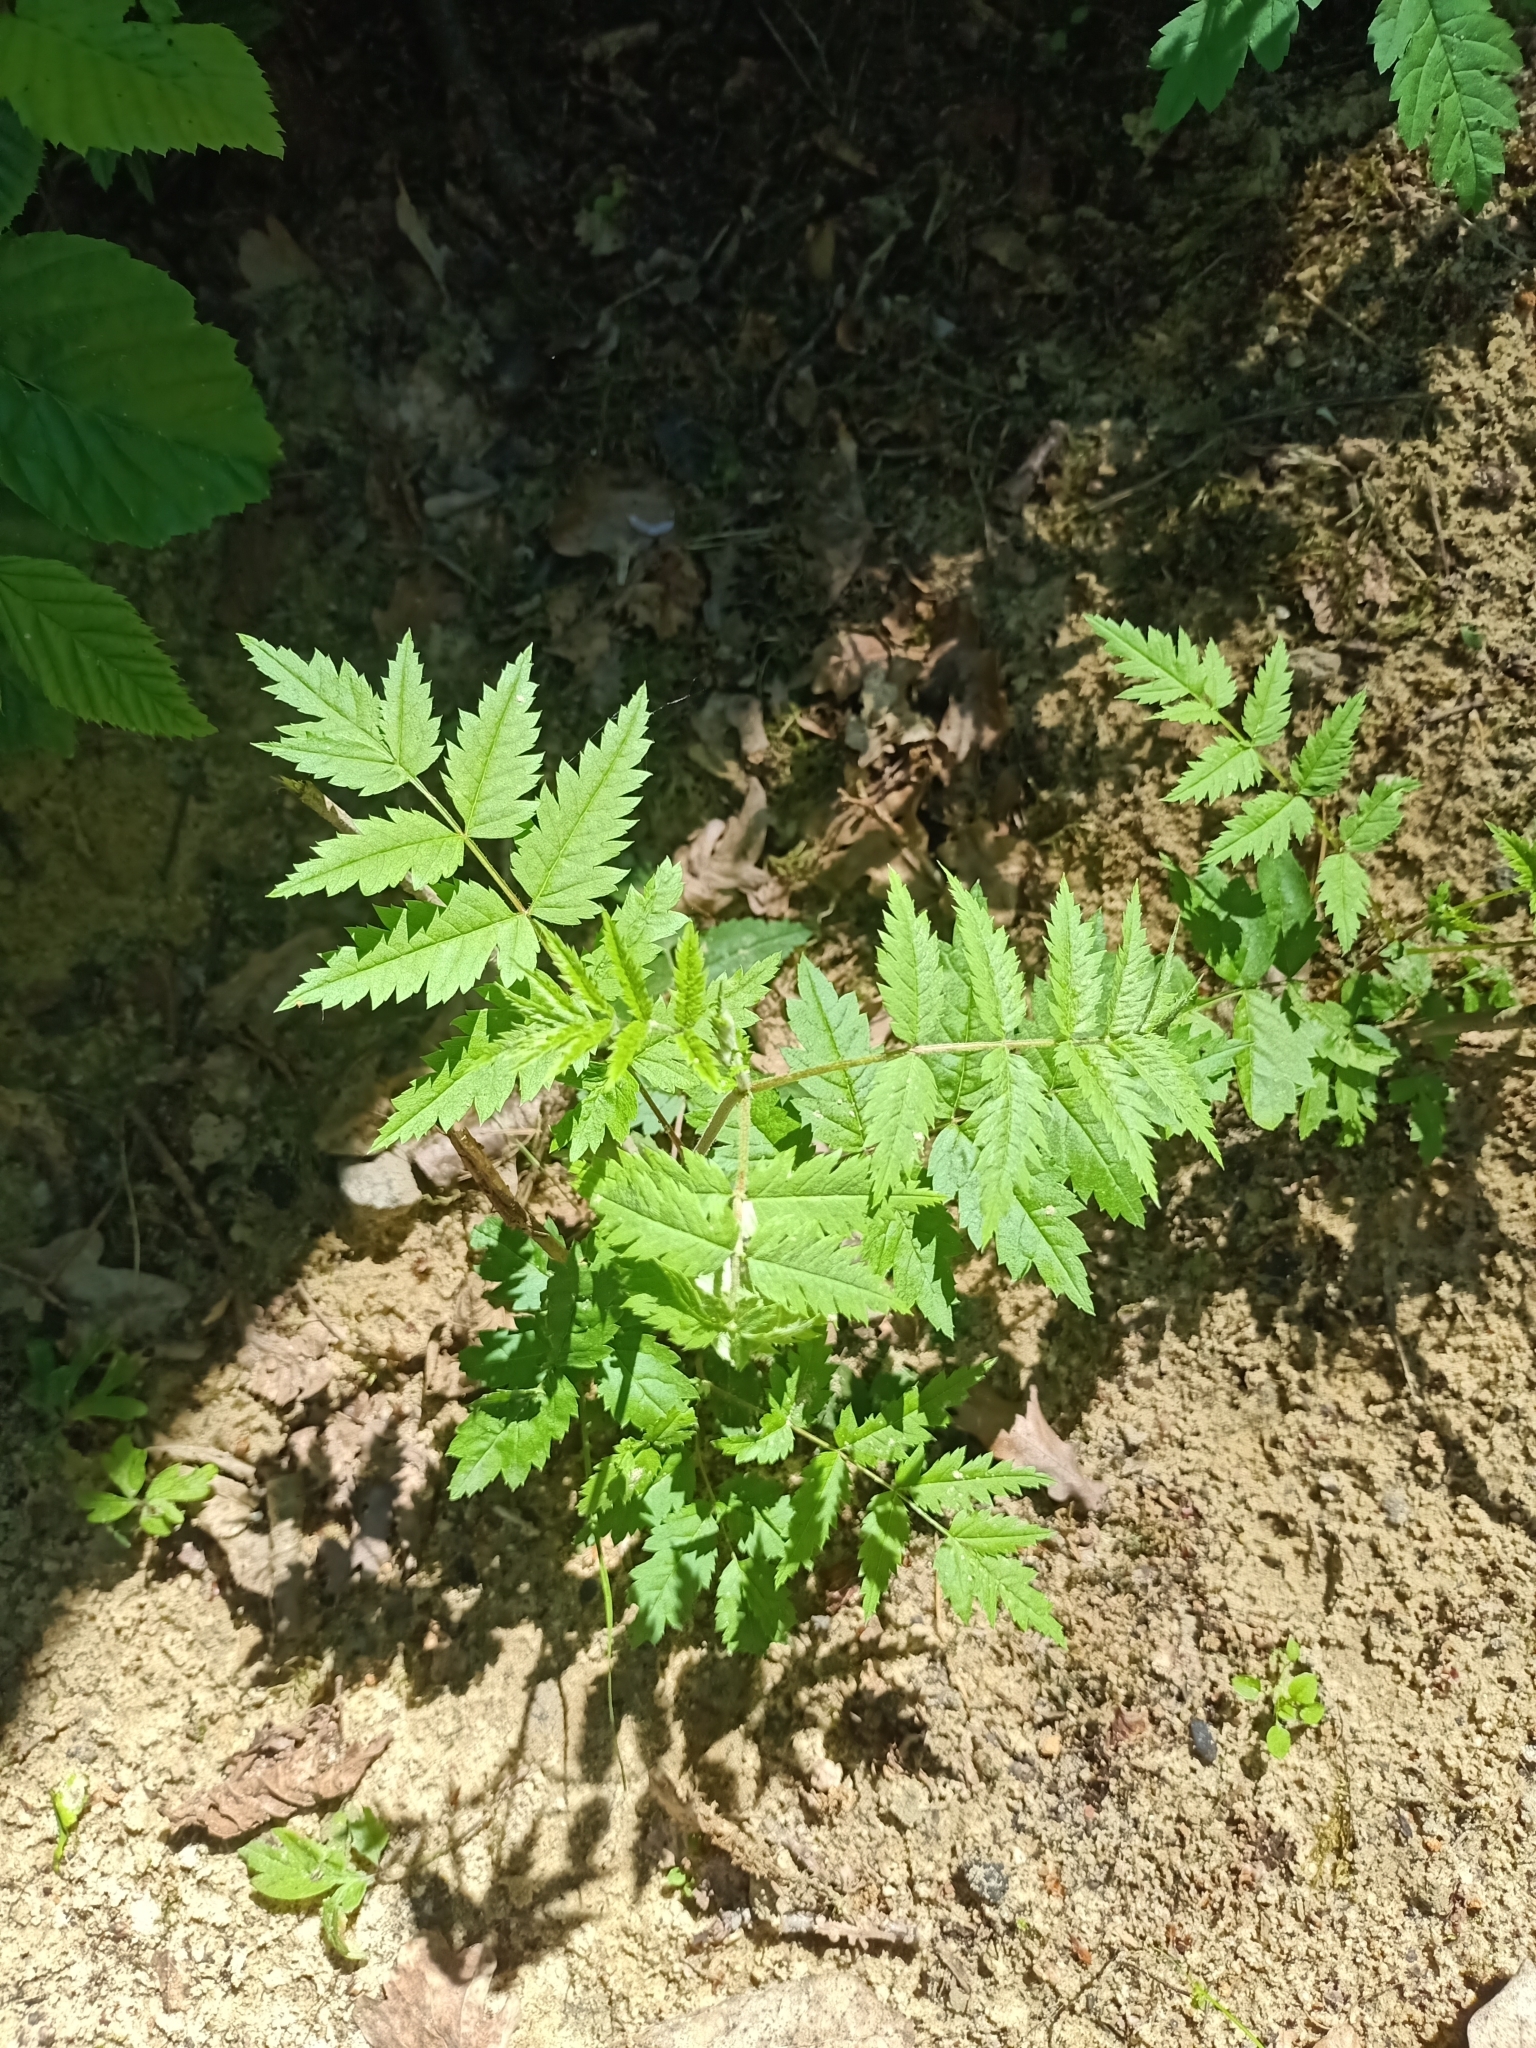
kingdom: Plantae
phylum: Tracheophyta
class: Magnoliopsida
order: Rosales
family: Rosaceae
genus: Sorbus
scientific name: Sorbus aucuparia
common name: Rowan
